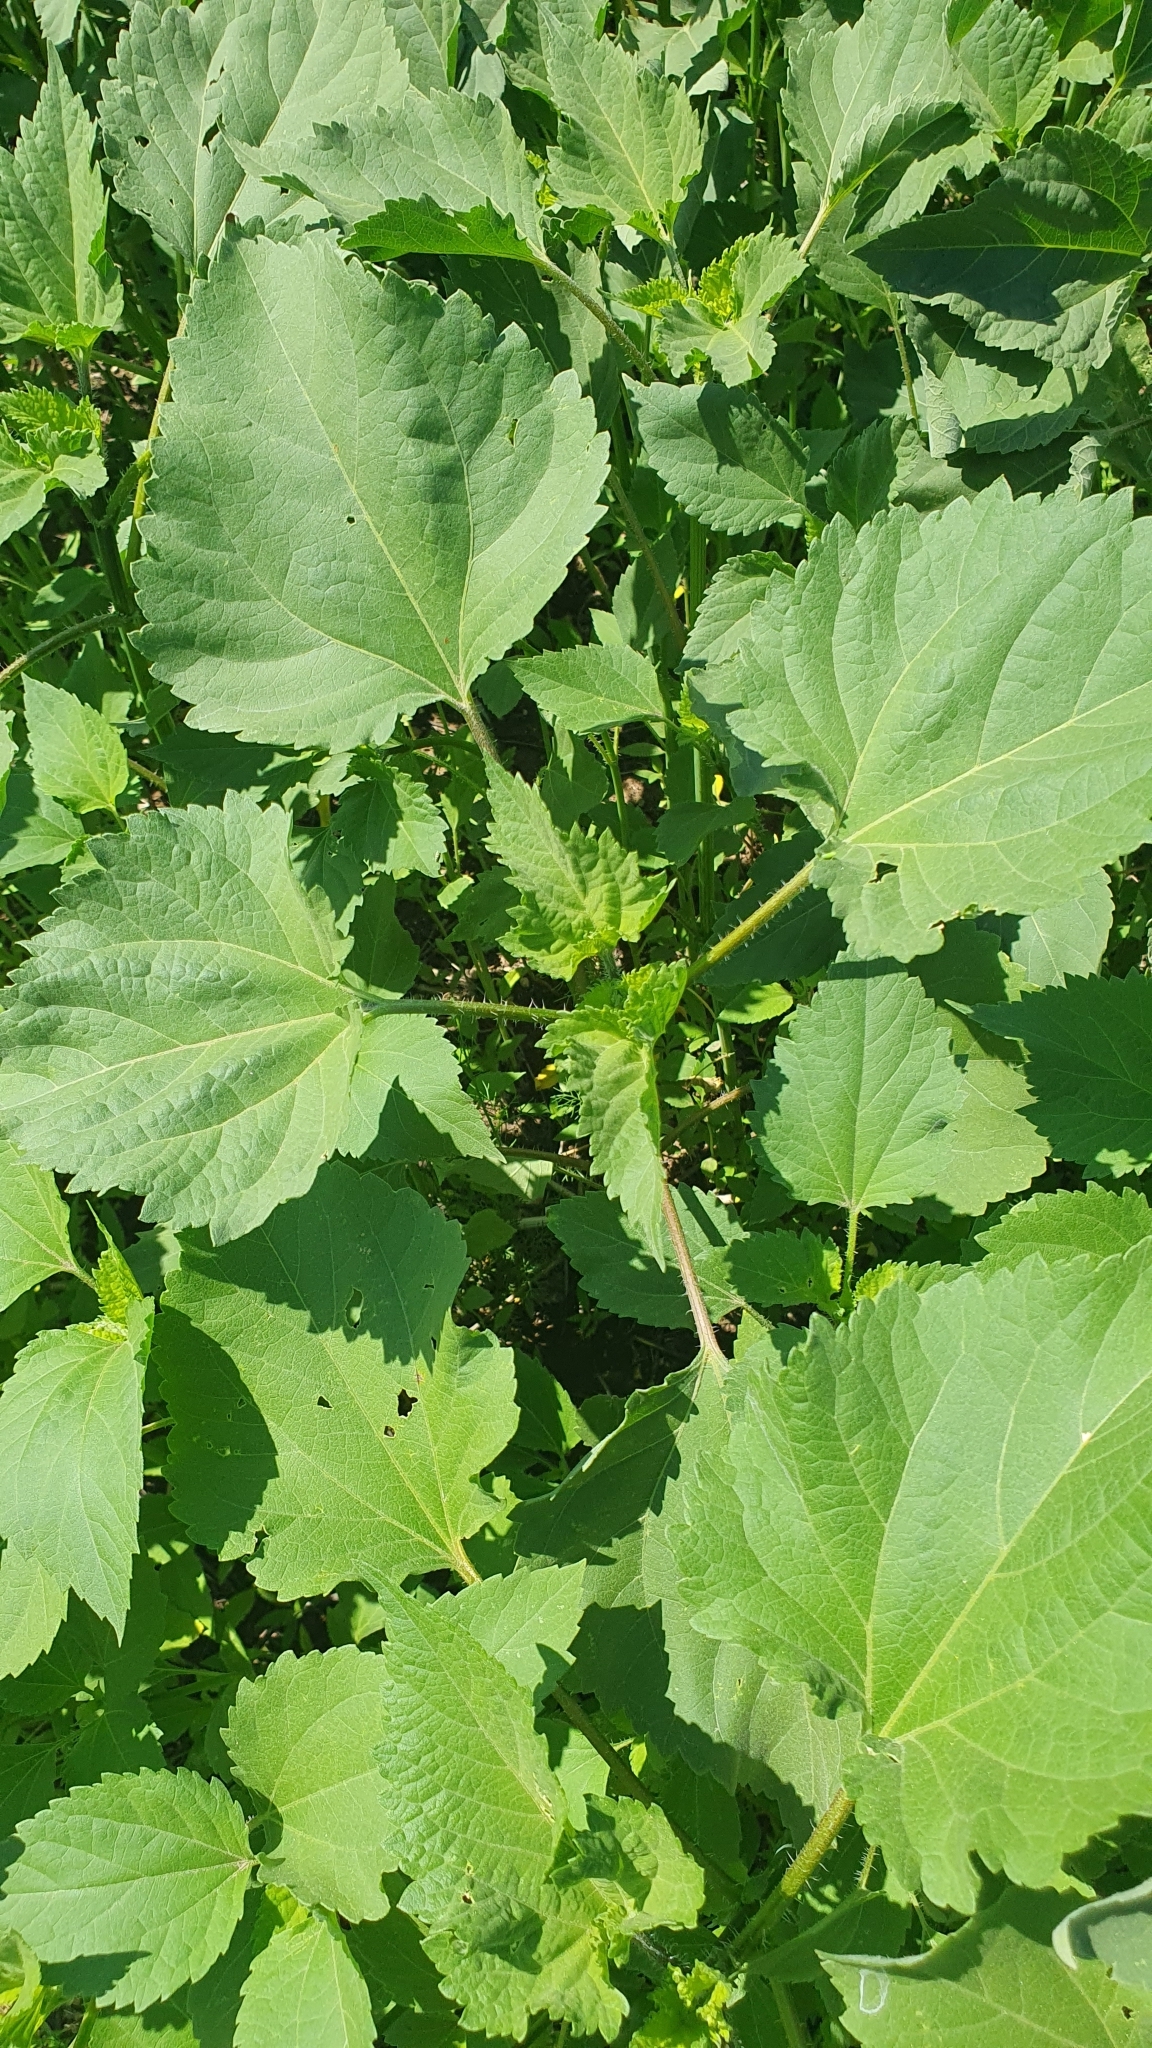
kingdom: Plantae
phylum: Tracheophyta
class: Magnoliopsida
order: Asterales
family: Asteraceae
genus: Cyclachaena
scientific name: Cyclachaena xanthiifolia
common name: Giant sumpweed
